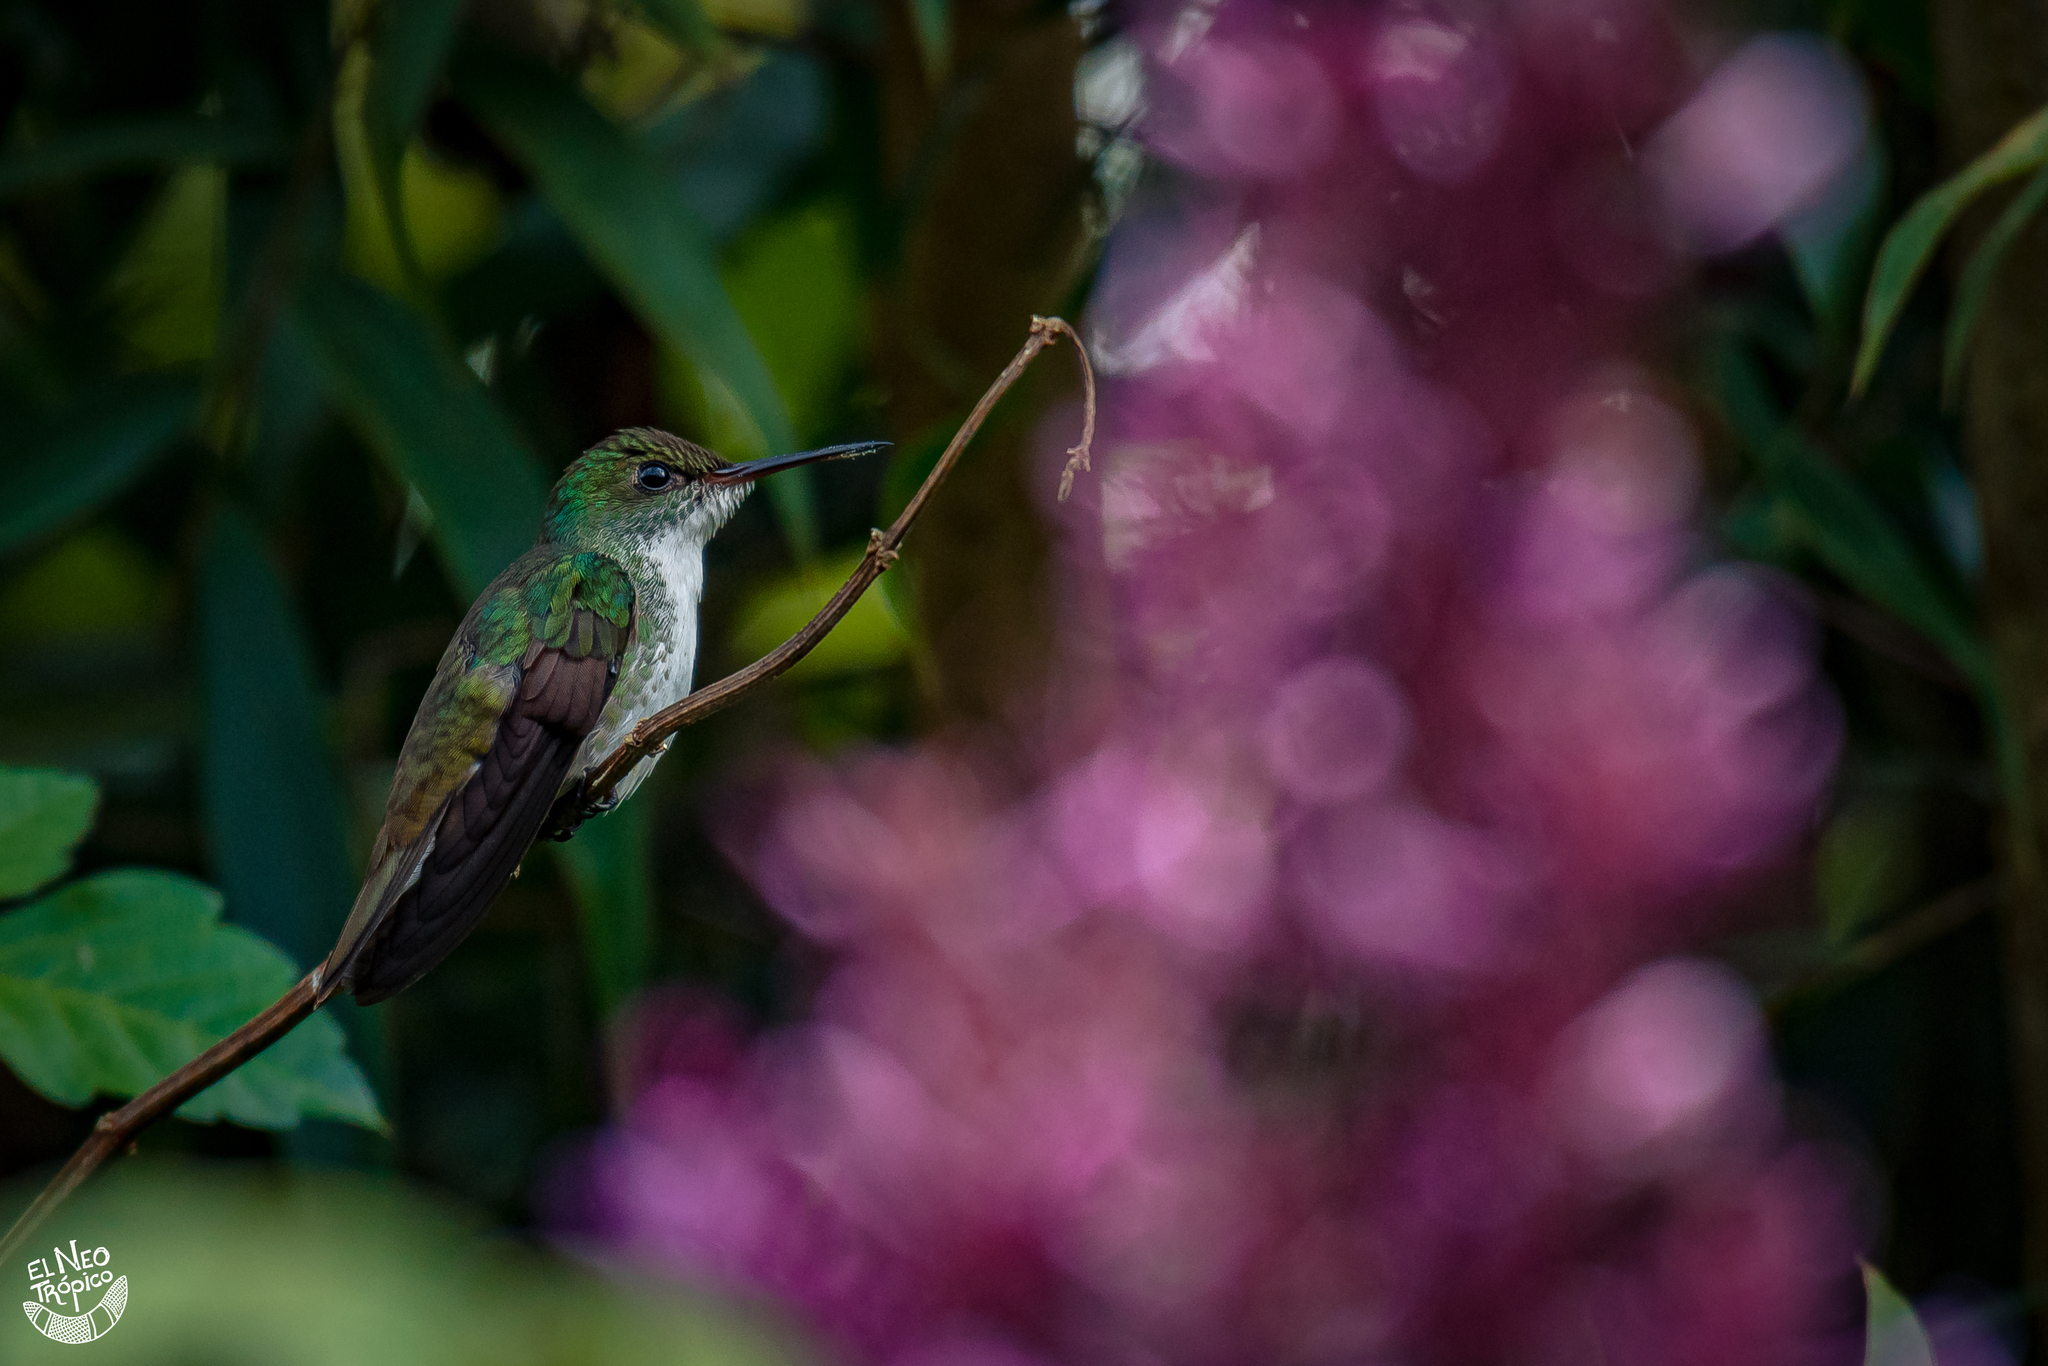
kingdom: Animalia
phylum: Chordata
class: Aves
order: Apodiformes
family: Trochilidae
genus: Chlorestes
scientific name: Chlorestes candida
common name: White-bellied emerald
